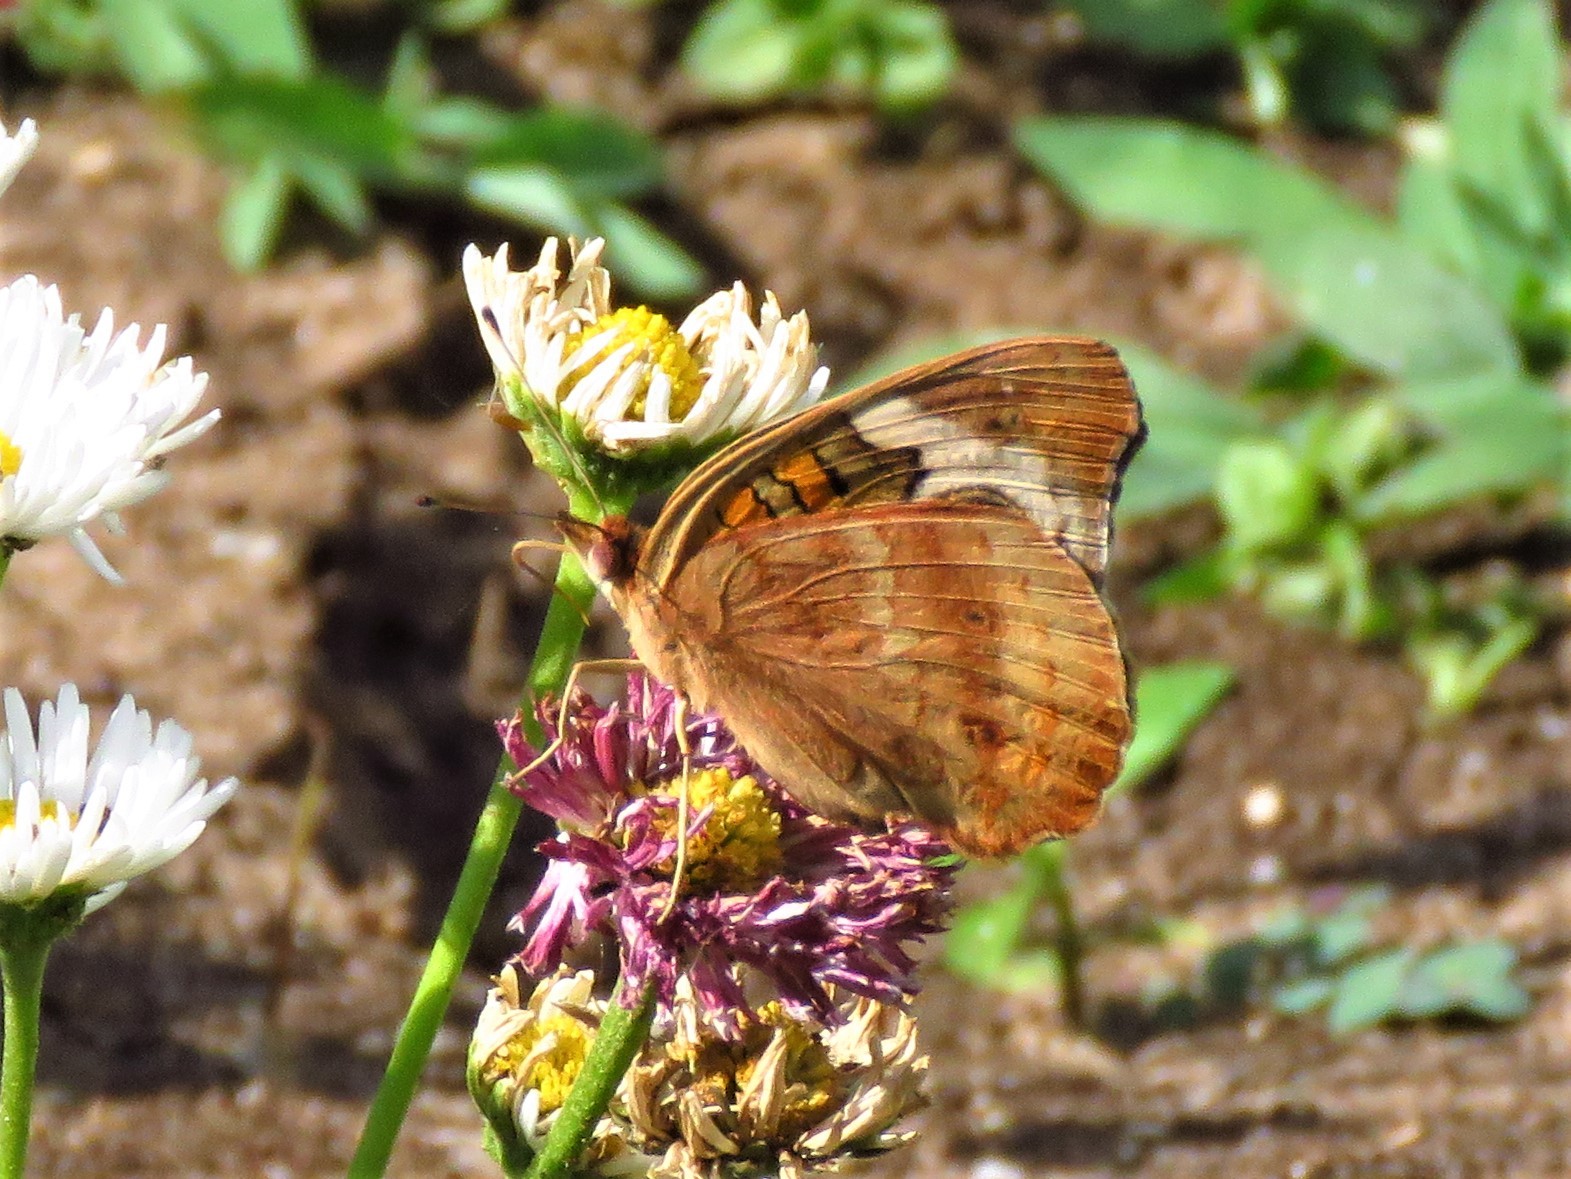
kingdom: Animalia
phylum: Arthropoda
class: Insecta
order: Lepidoptera
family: Nymphalidae
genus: Junonia
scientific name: Junonia coenia
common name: Common buckeye
